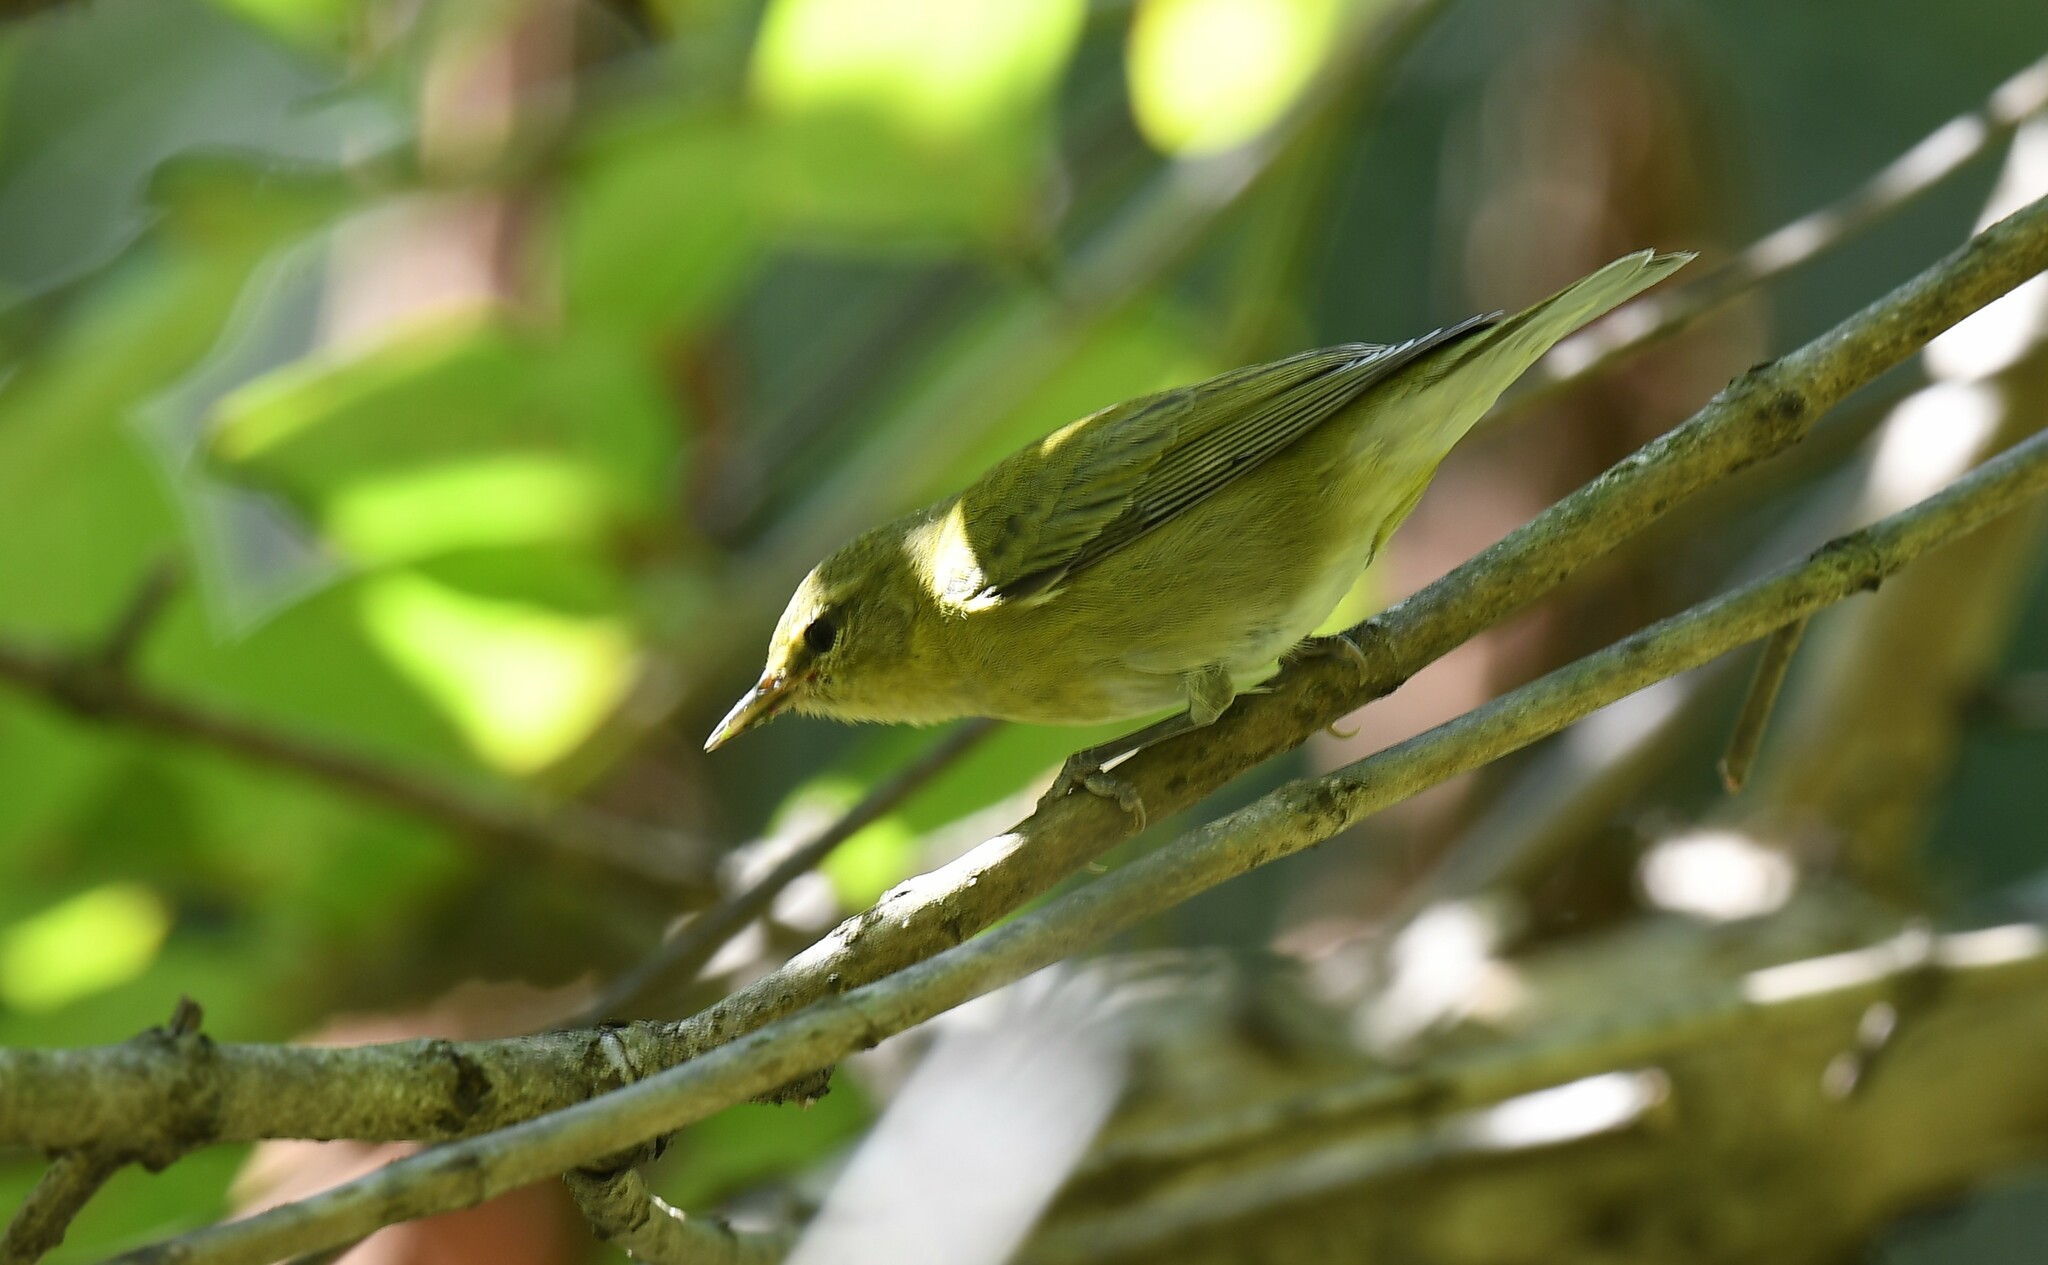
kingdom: Animalia
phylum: Chordata
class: Aves
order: Passeriformes
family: Parulidae
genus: Leiothlypis
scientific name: Leiothlypis peregrina
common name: Tennessee warbler
